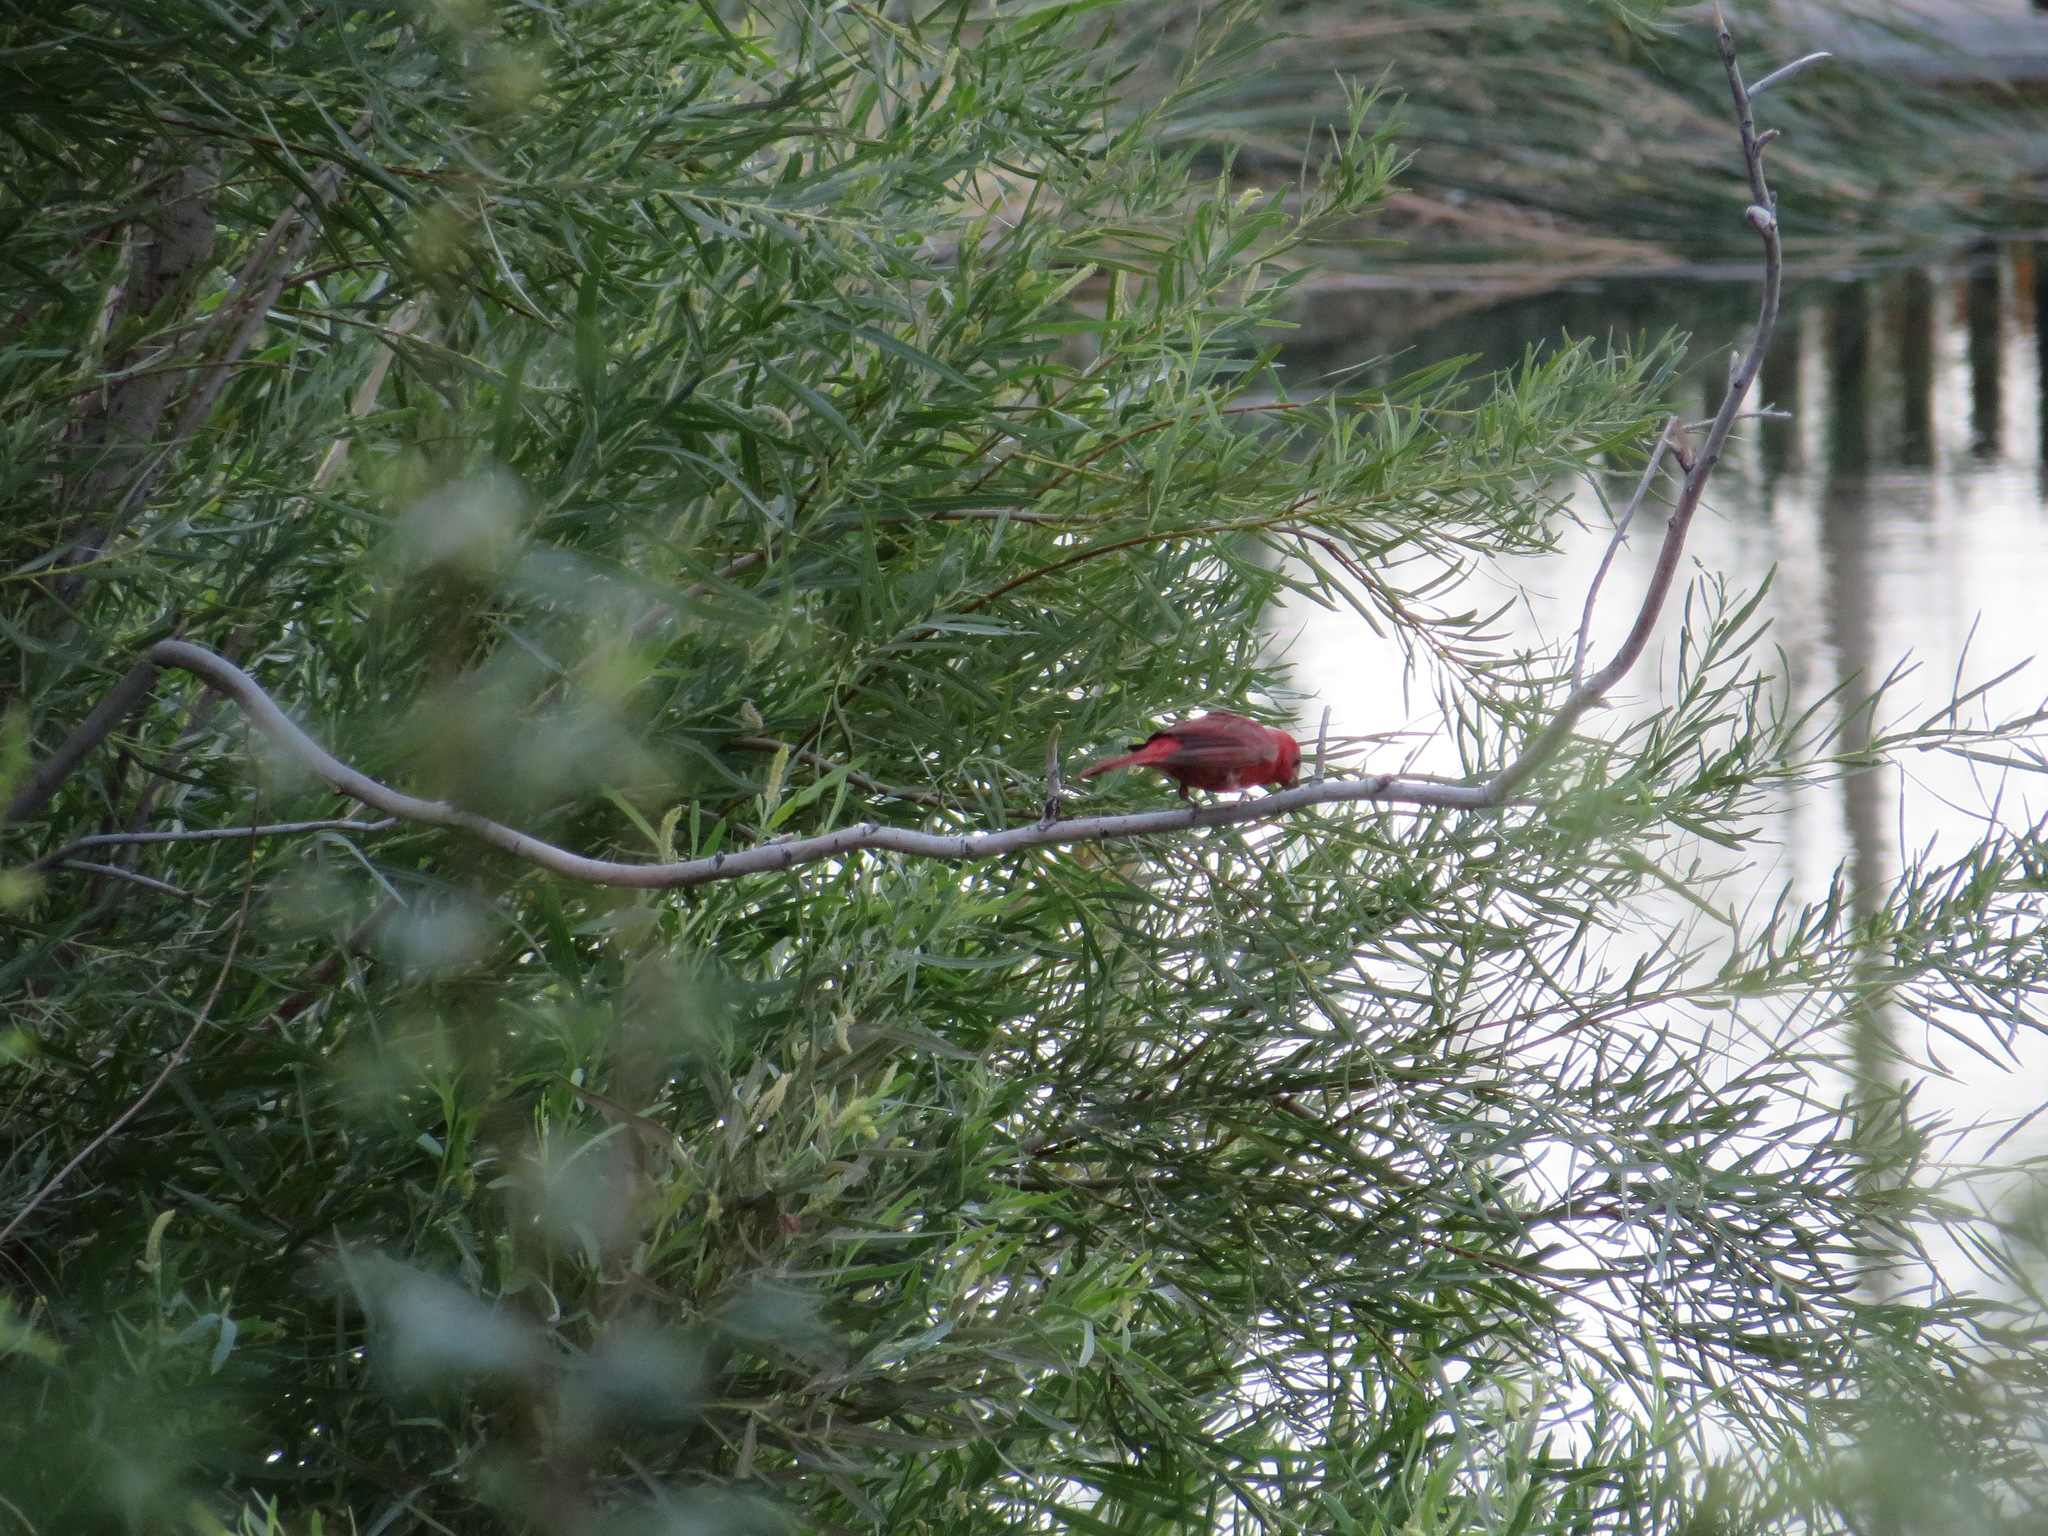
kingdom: Animalia
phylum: Chordata
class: Aves
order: Passeriformes
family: Cardinalidae
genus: Piranga
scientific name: Piranga rubra
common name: Summer tanager
